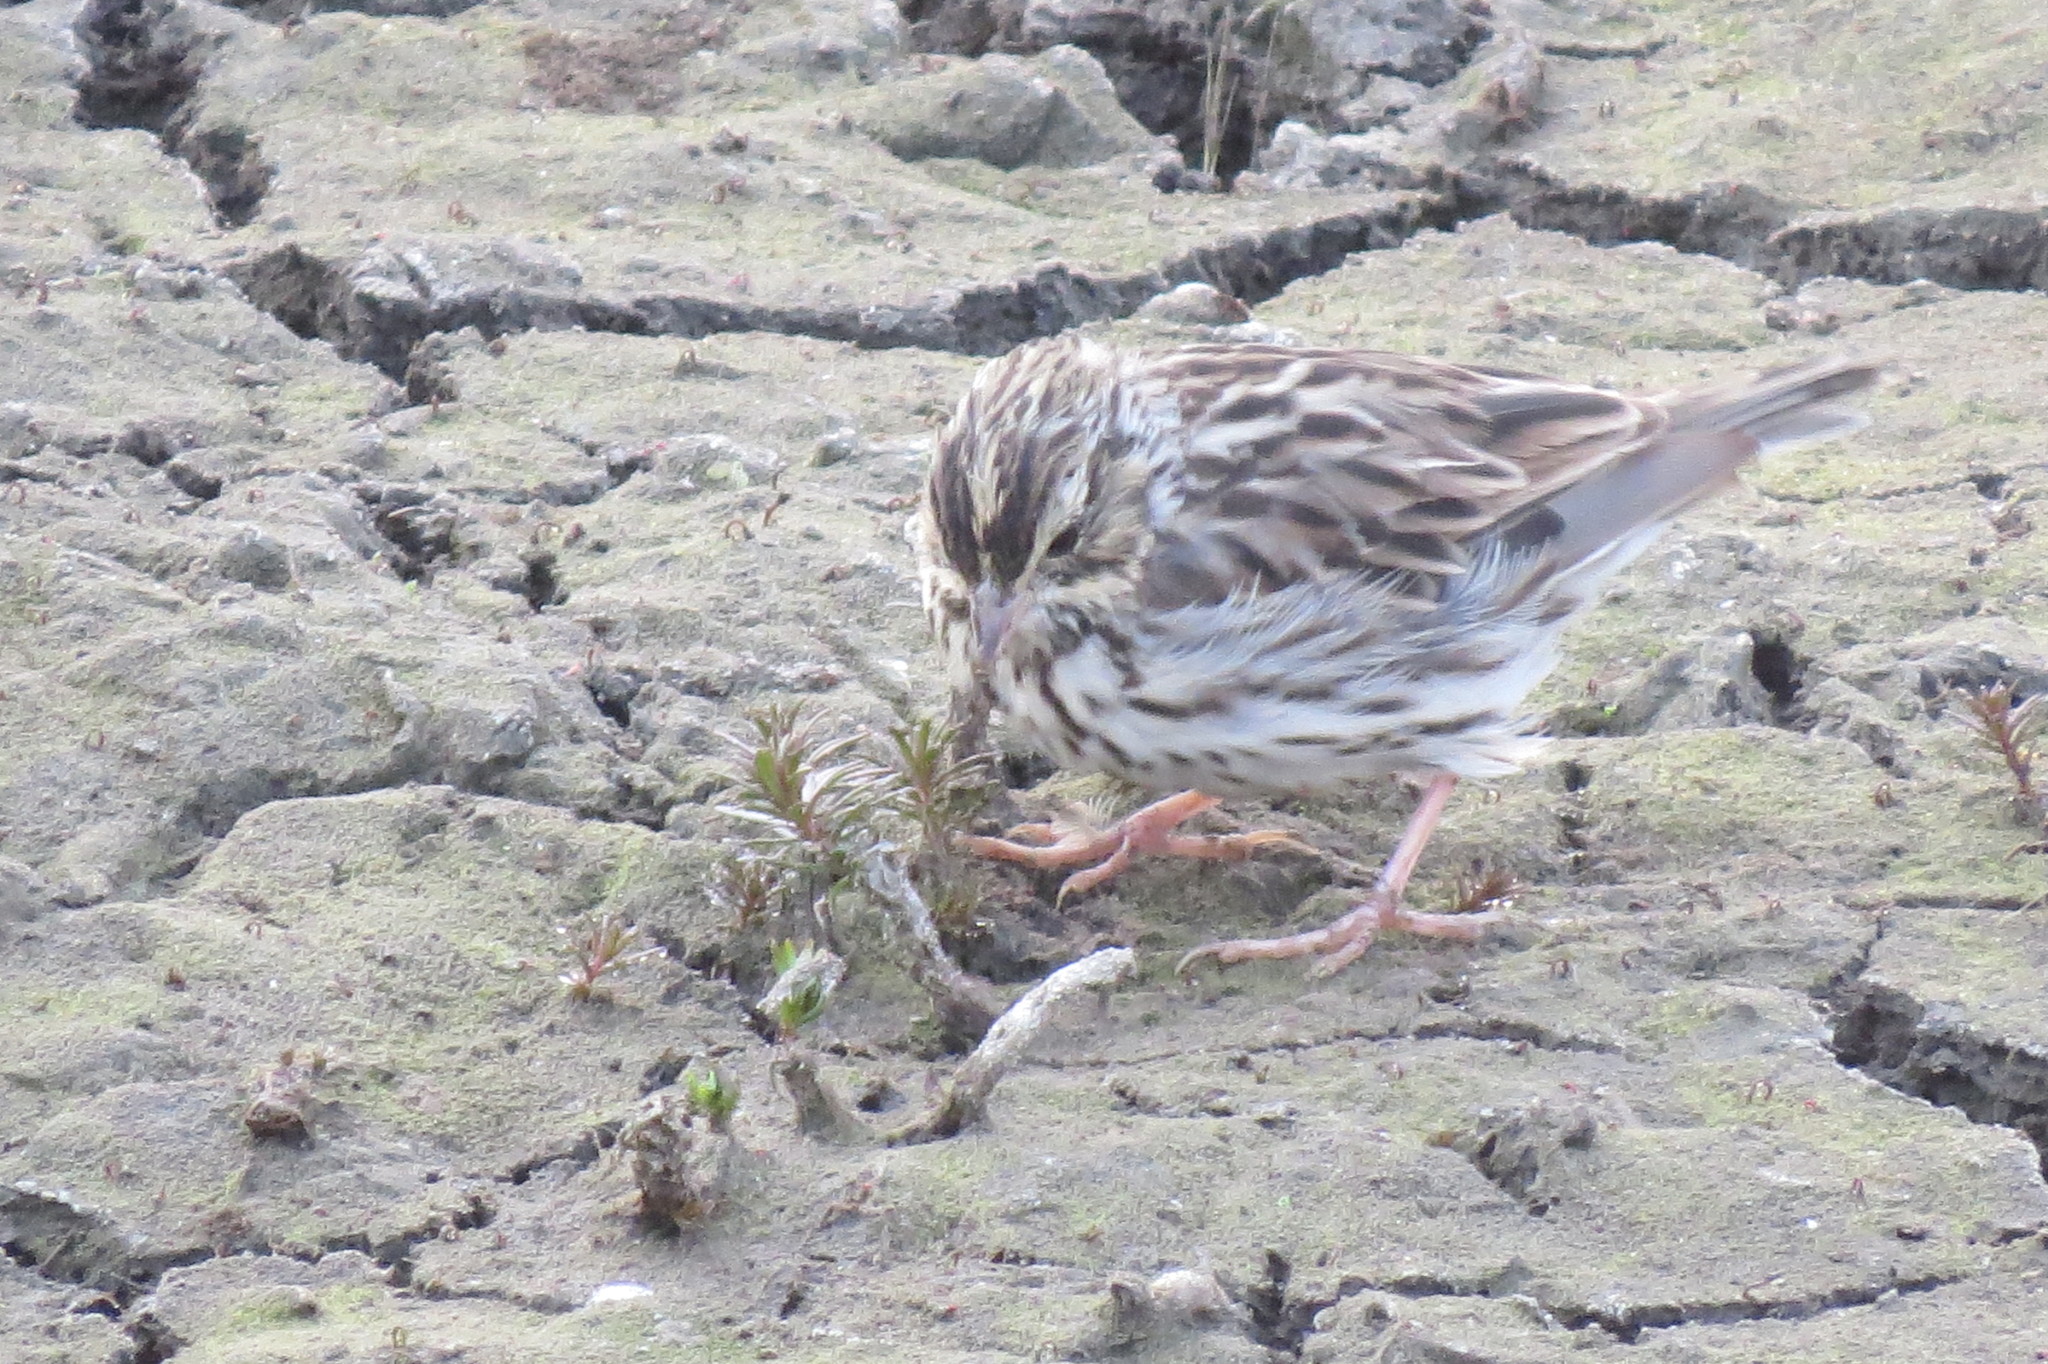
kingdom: Animalia
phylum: Chordata
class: Aves
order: Passeriformes
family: Passerellidae
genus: Passerculus
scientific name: Passerculus sandwichensis
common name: Savannah sparrow
